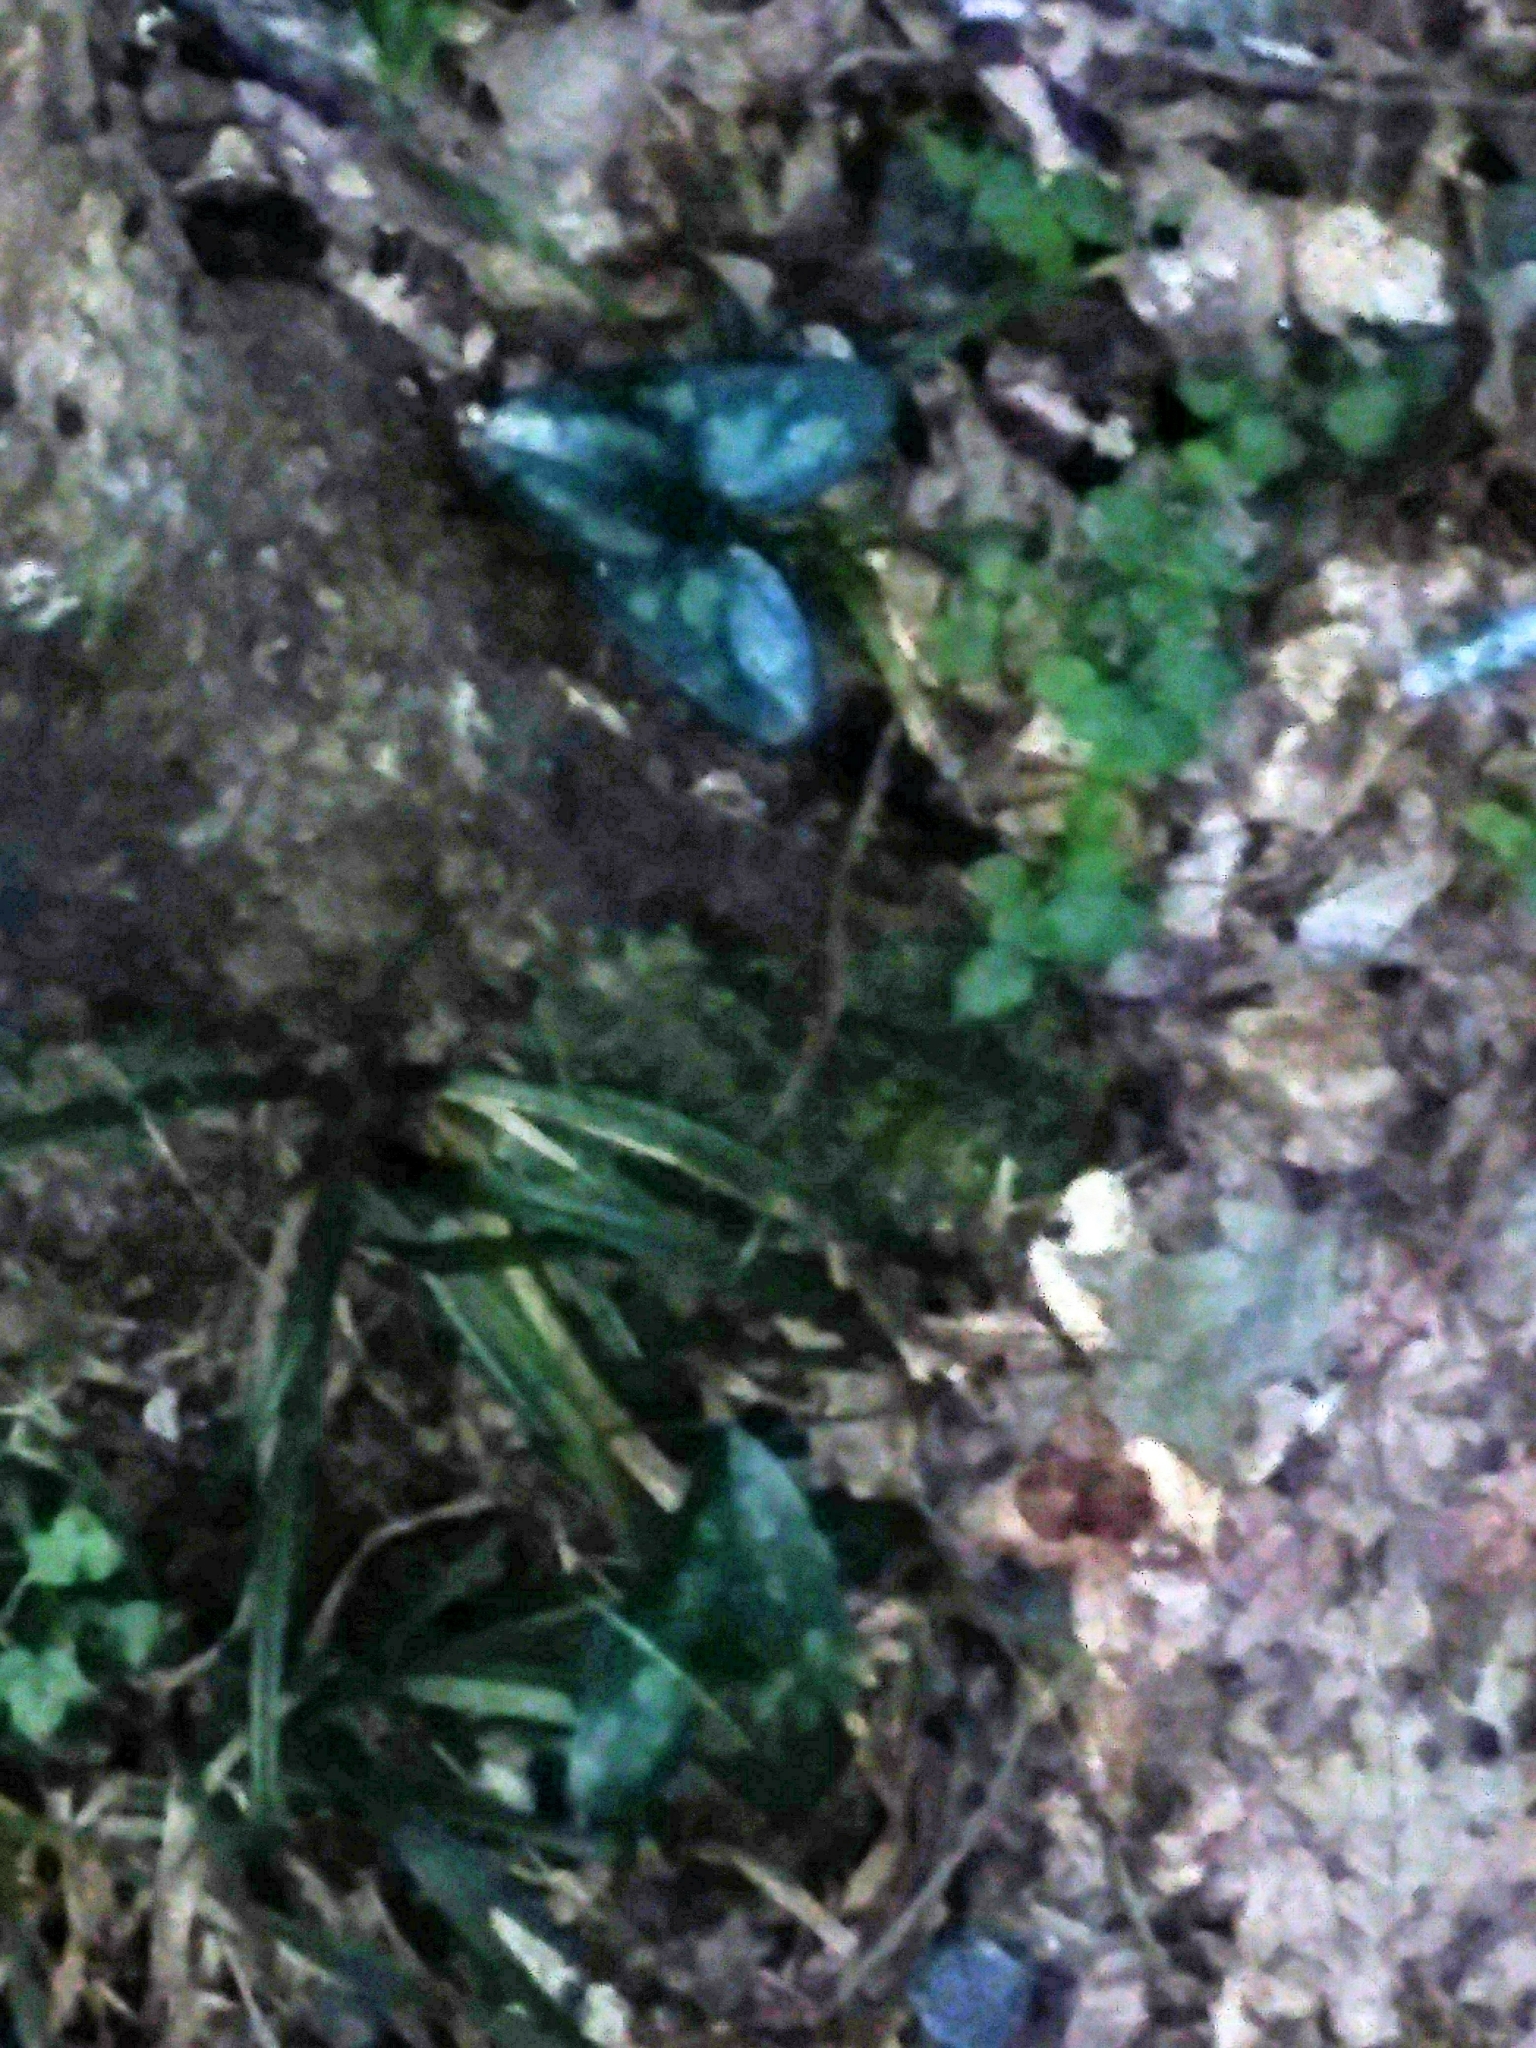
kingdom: Plantae
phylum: Tracheophyta
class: Magnoliopsida
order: Piperales
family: Aristolochiaceae
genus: Hexastylis
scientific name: Hexastylis arifolia
